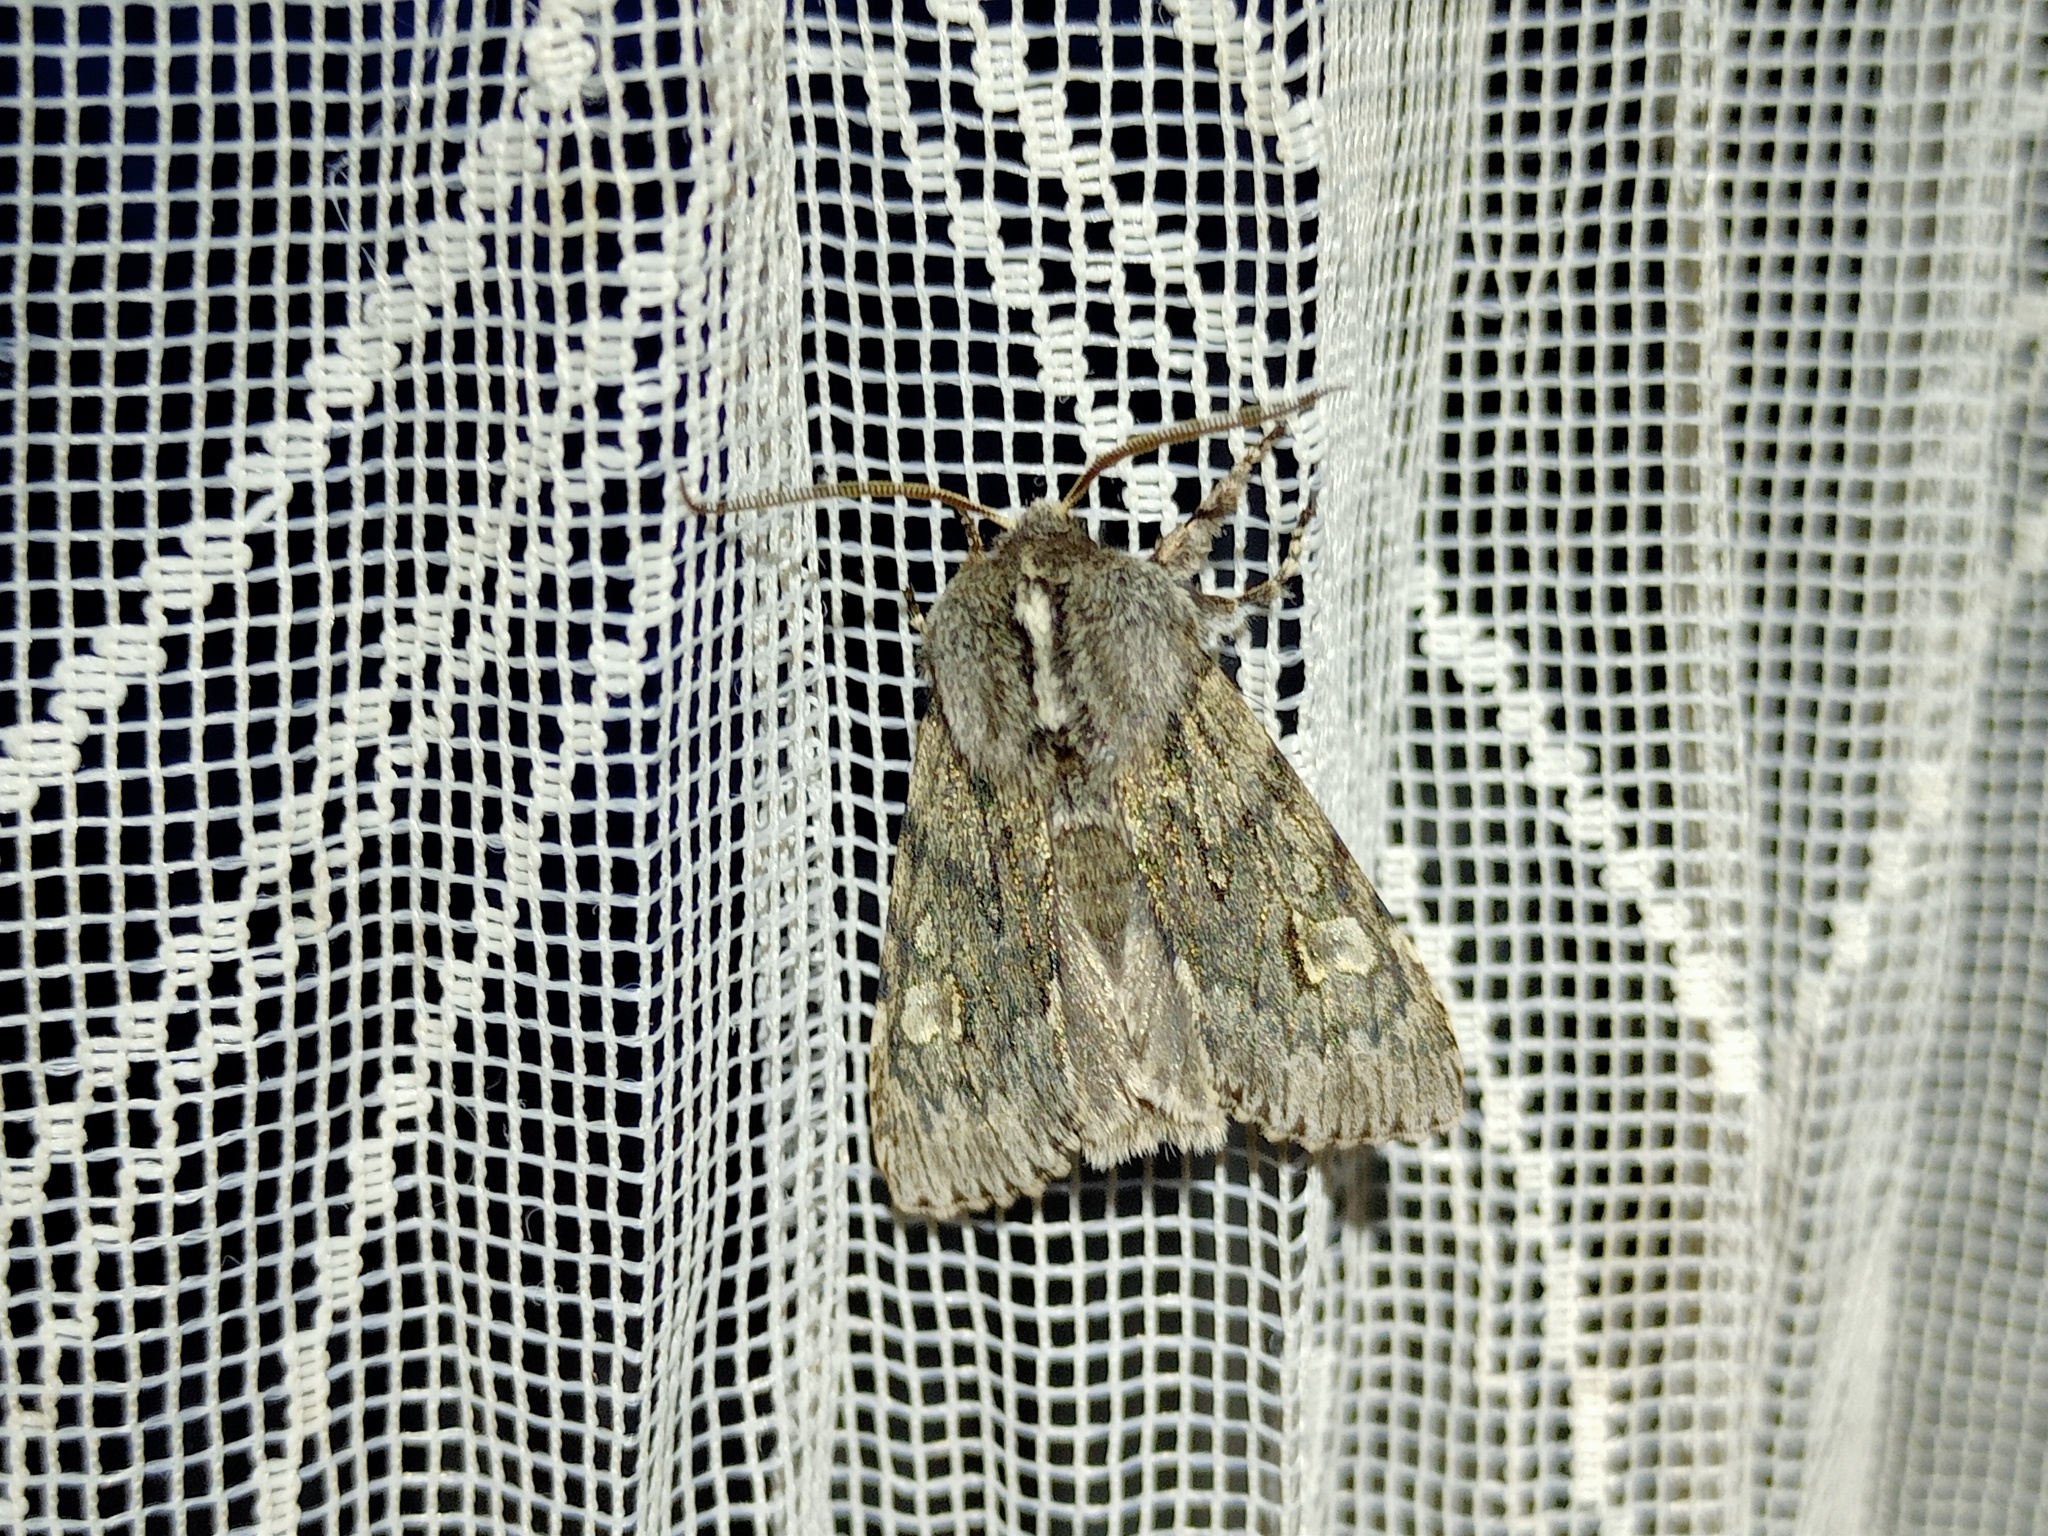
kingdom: Animalia
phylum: Arthropoda
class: Insecta
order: Lepidoptera
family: Noctuidae
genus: Brachionycha
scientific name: Brachionycha nubeculosa
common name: Rannoch sprawler
